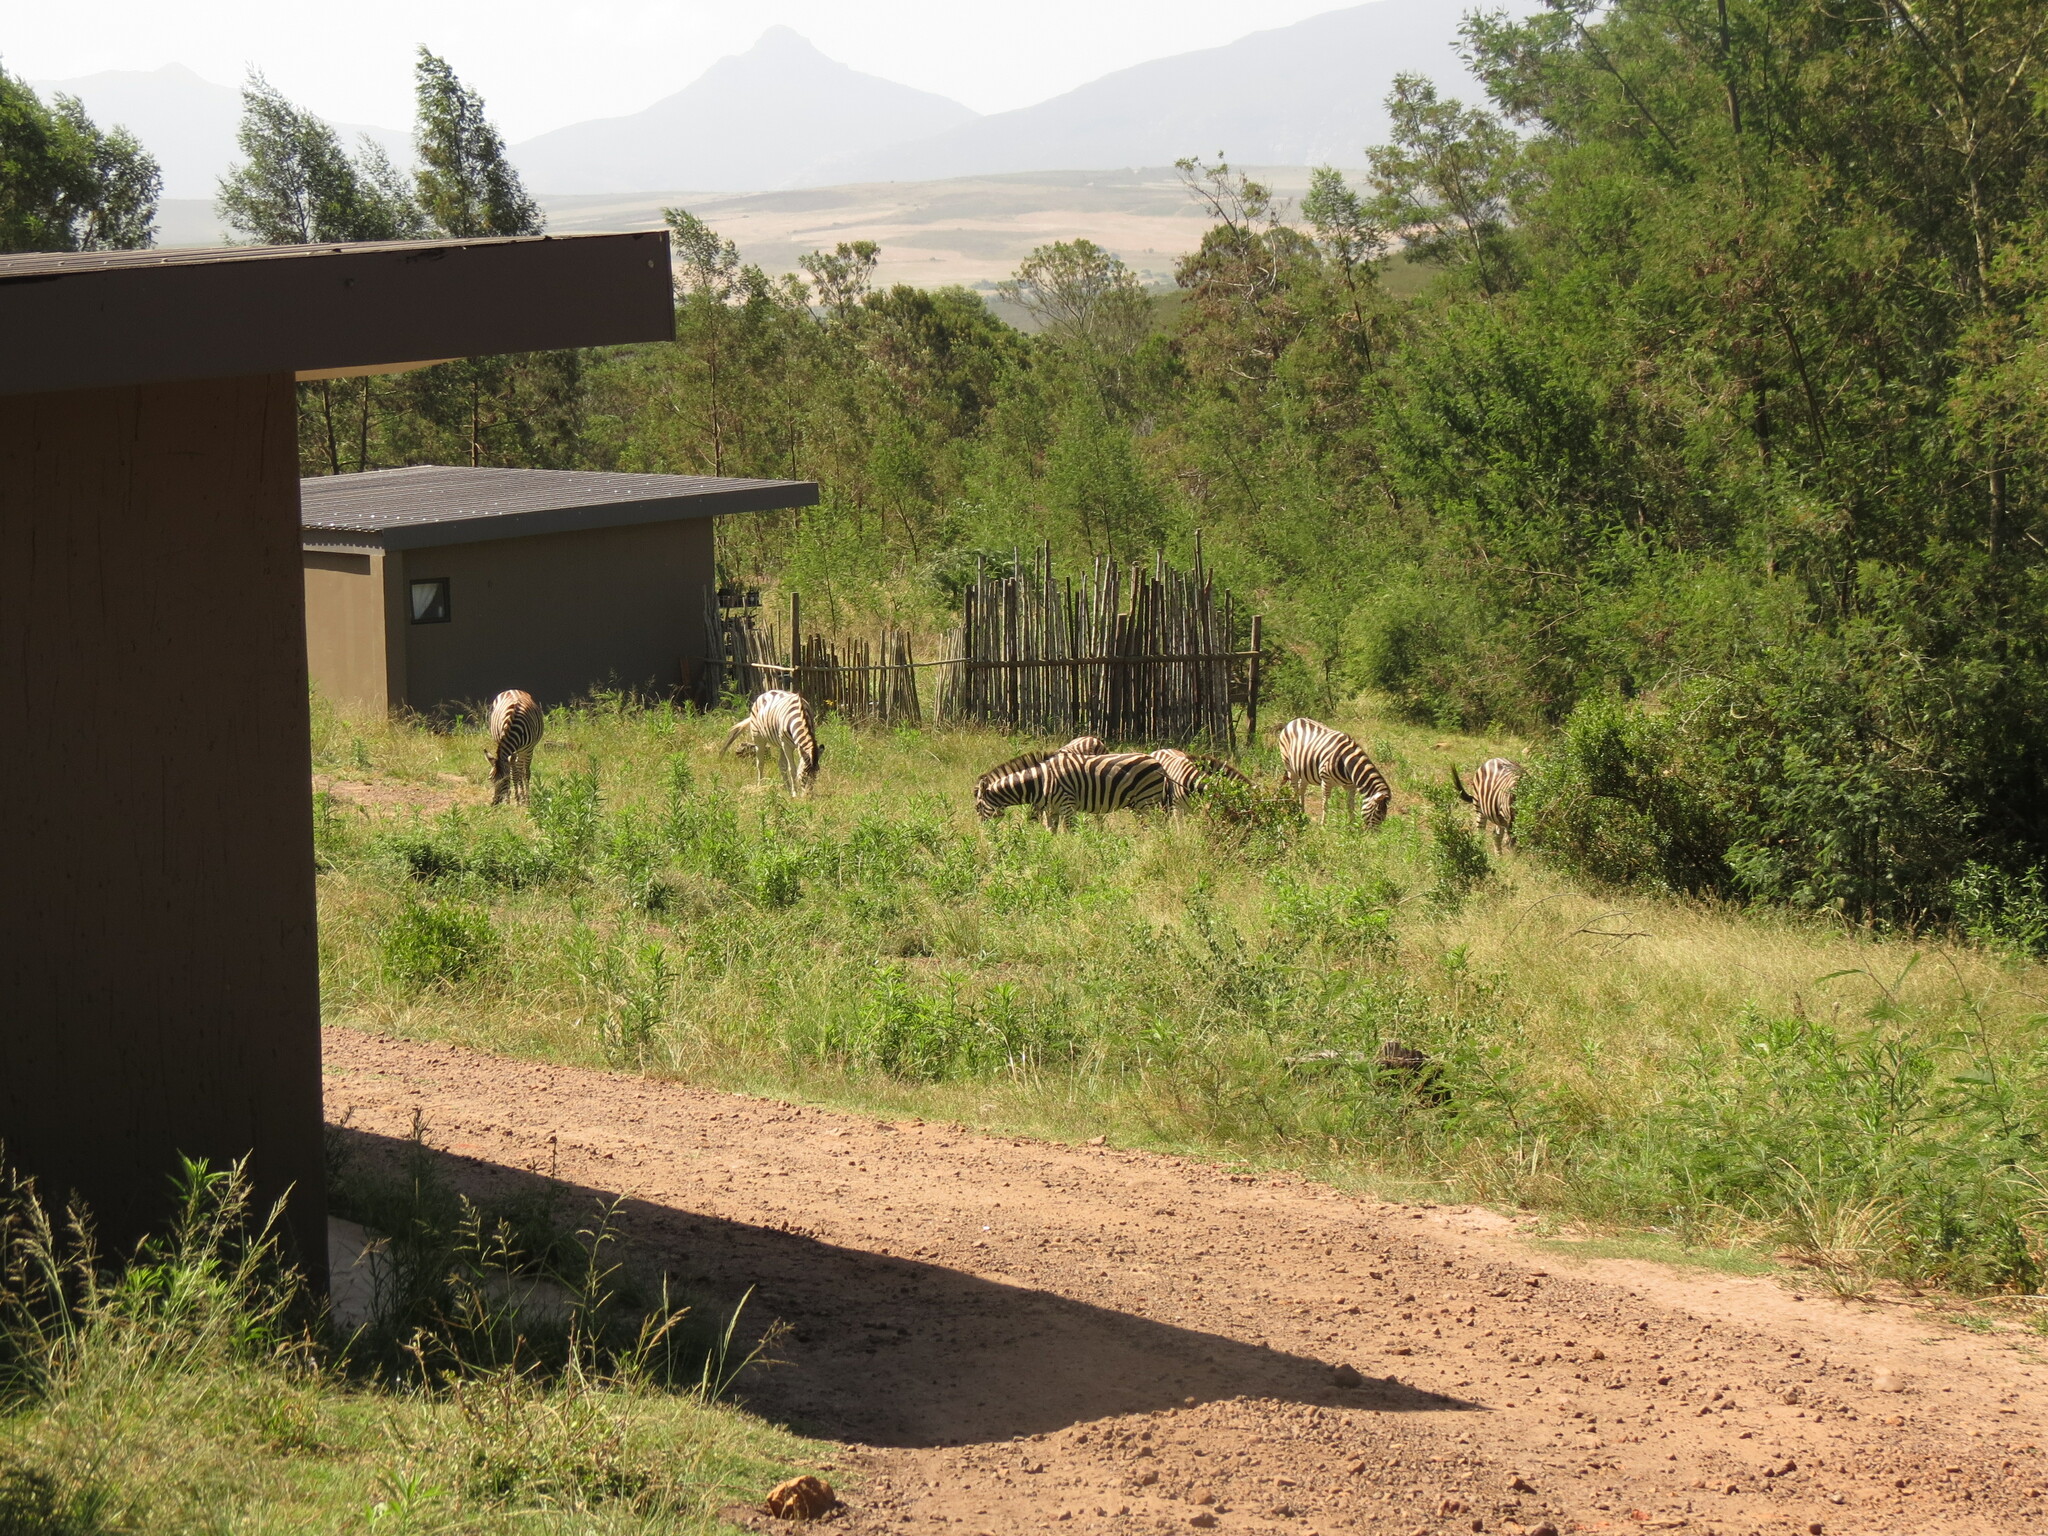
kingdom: Animalia
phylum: Chordata
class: Mammalia
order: Perissodactyla
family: Equidae
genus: Equus
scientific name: Equus quagga
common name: Plains zebra
